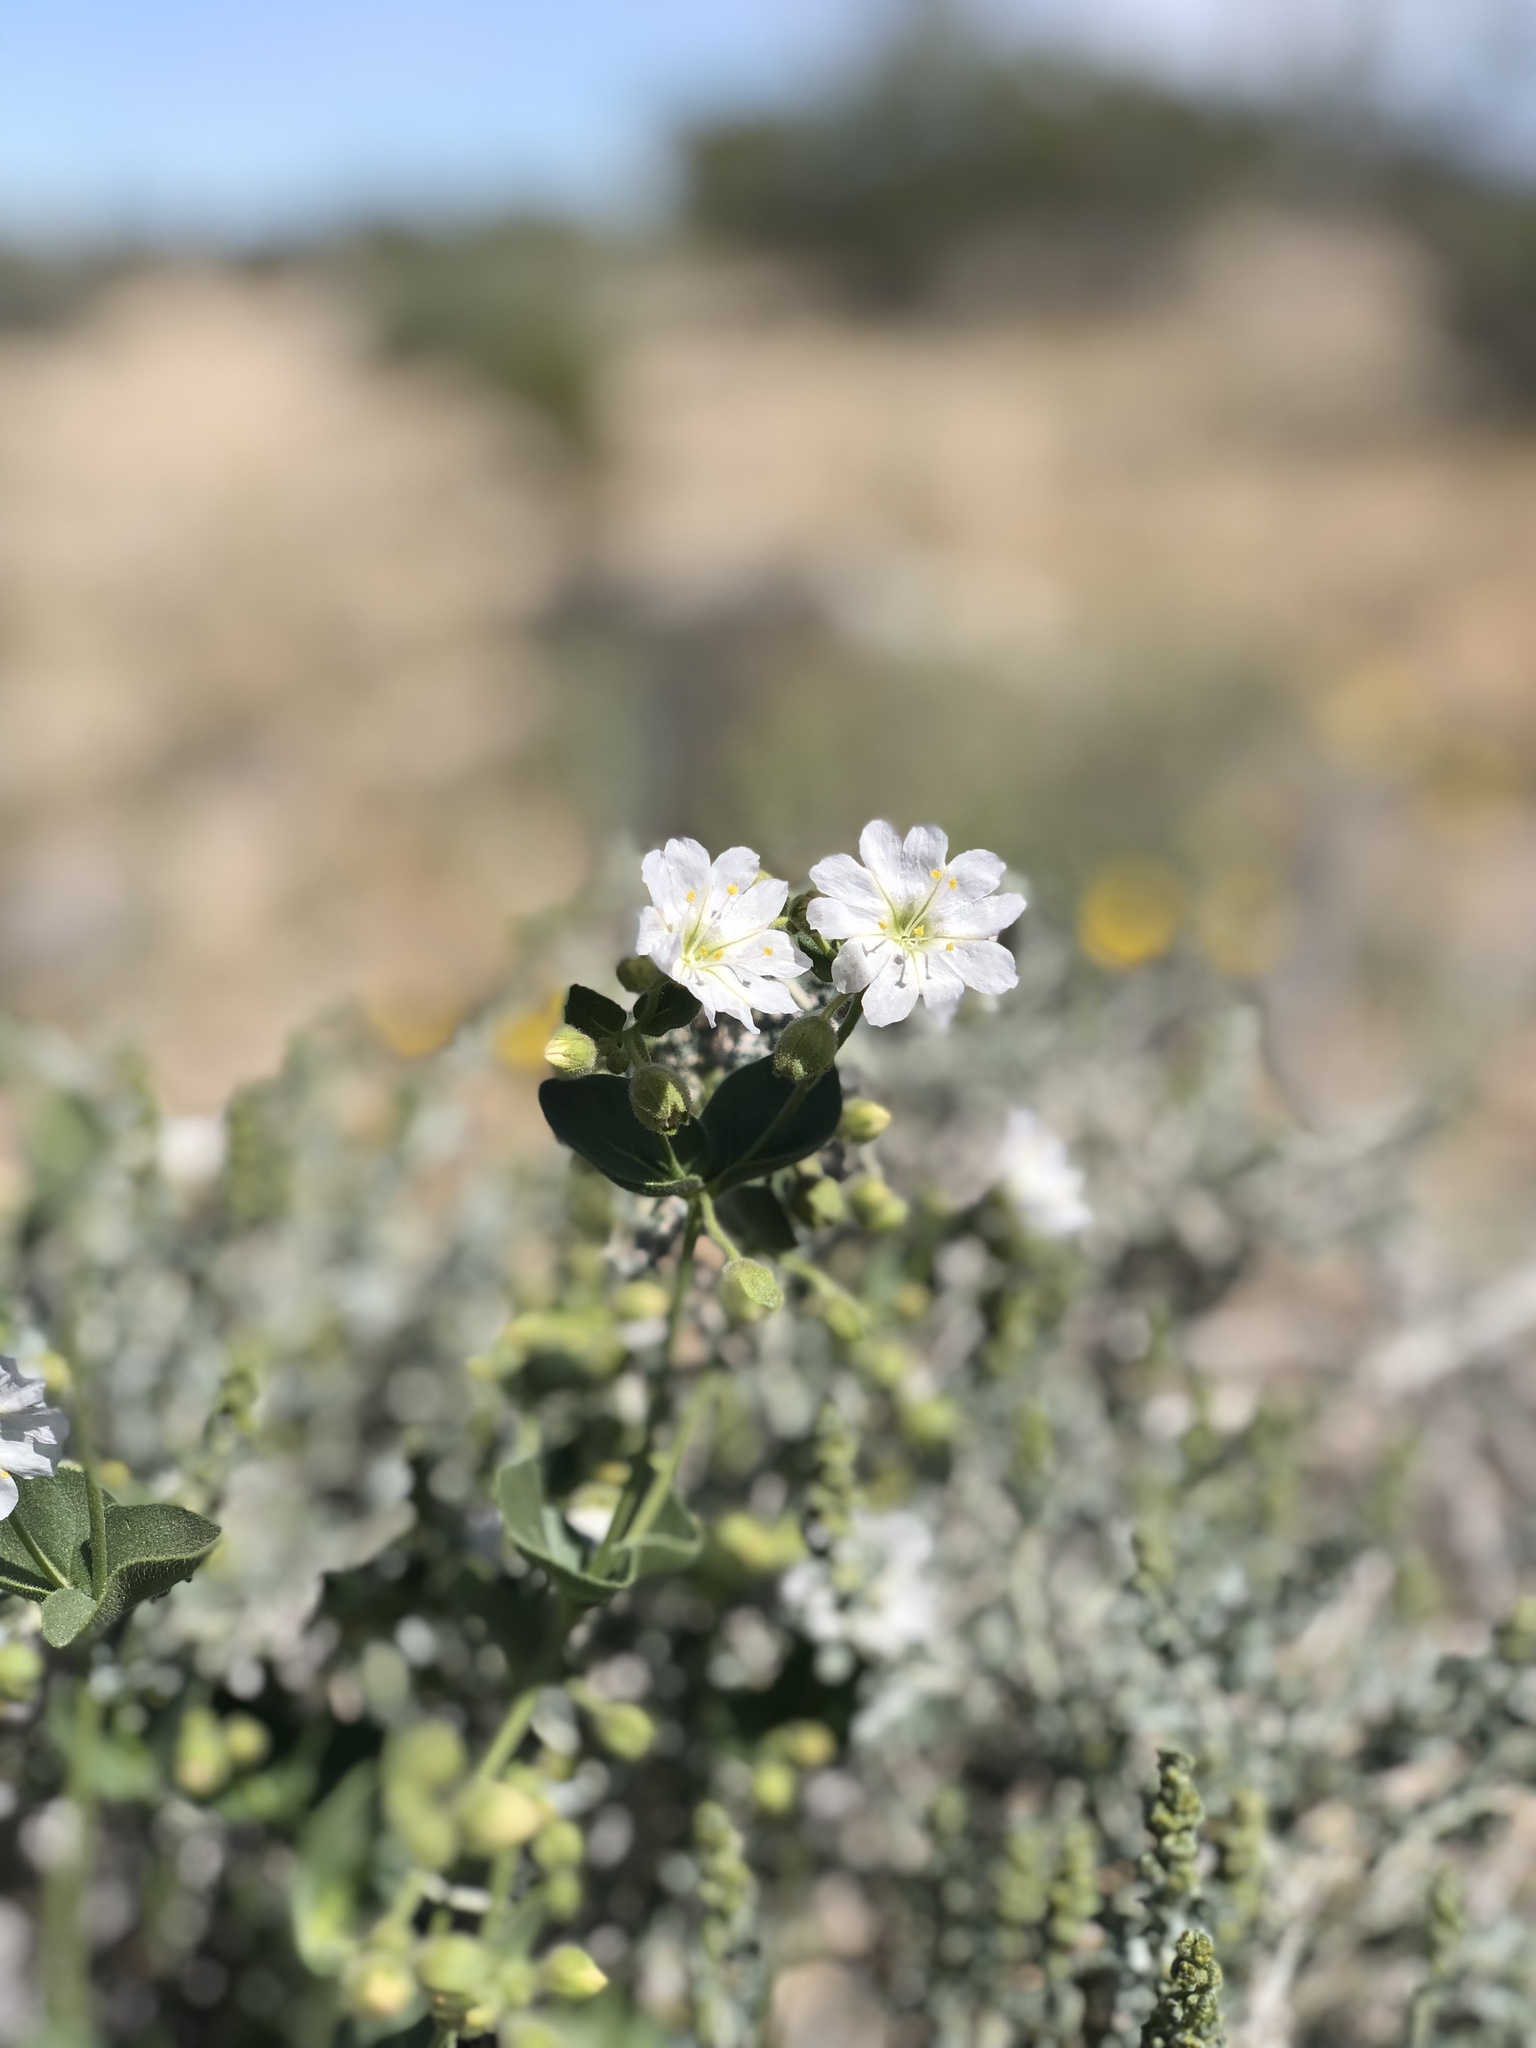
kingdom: Plantae
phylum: Tracheophyta
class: Magnoliopsida
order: Caryophyllales
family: Nyctaginaceae
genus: Mirabilis
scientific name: Mirabilis laevis
